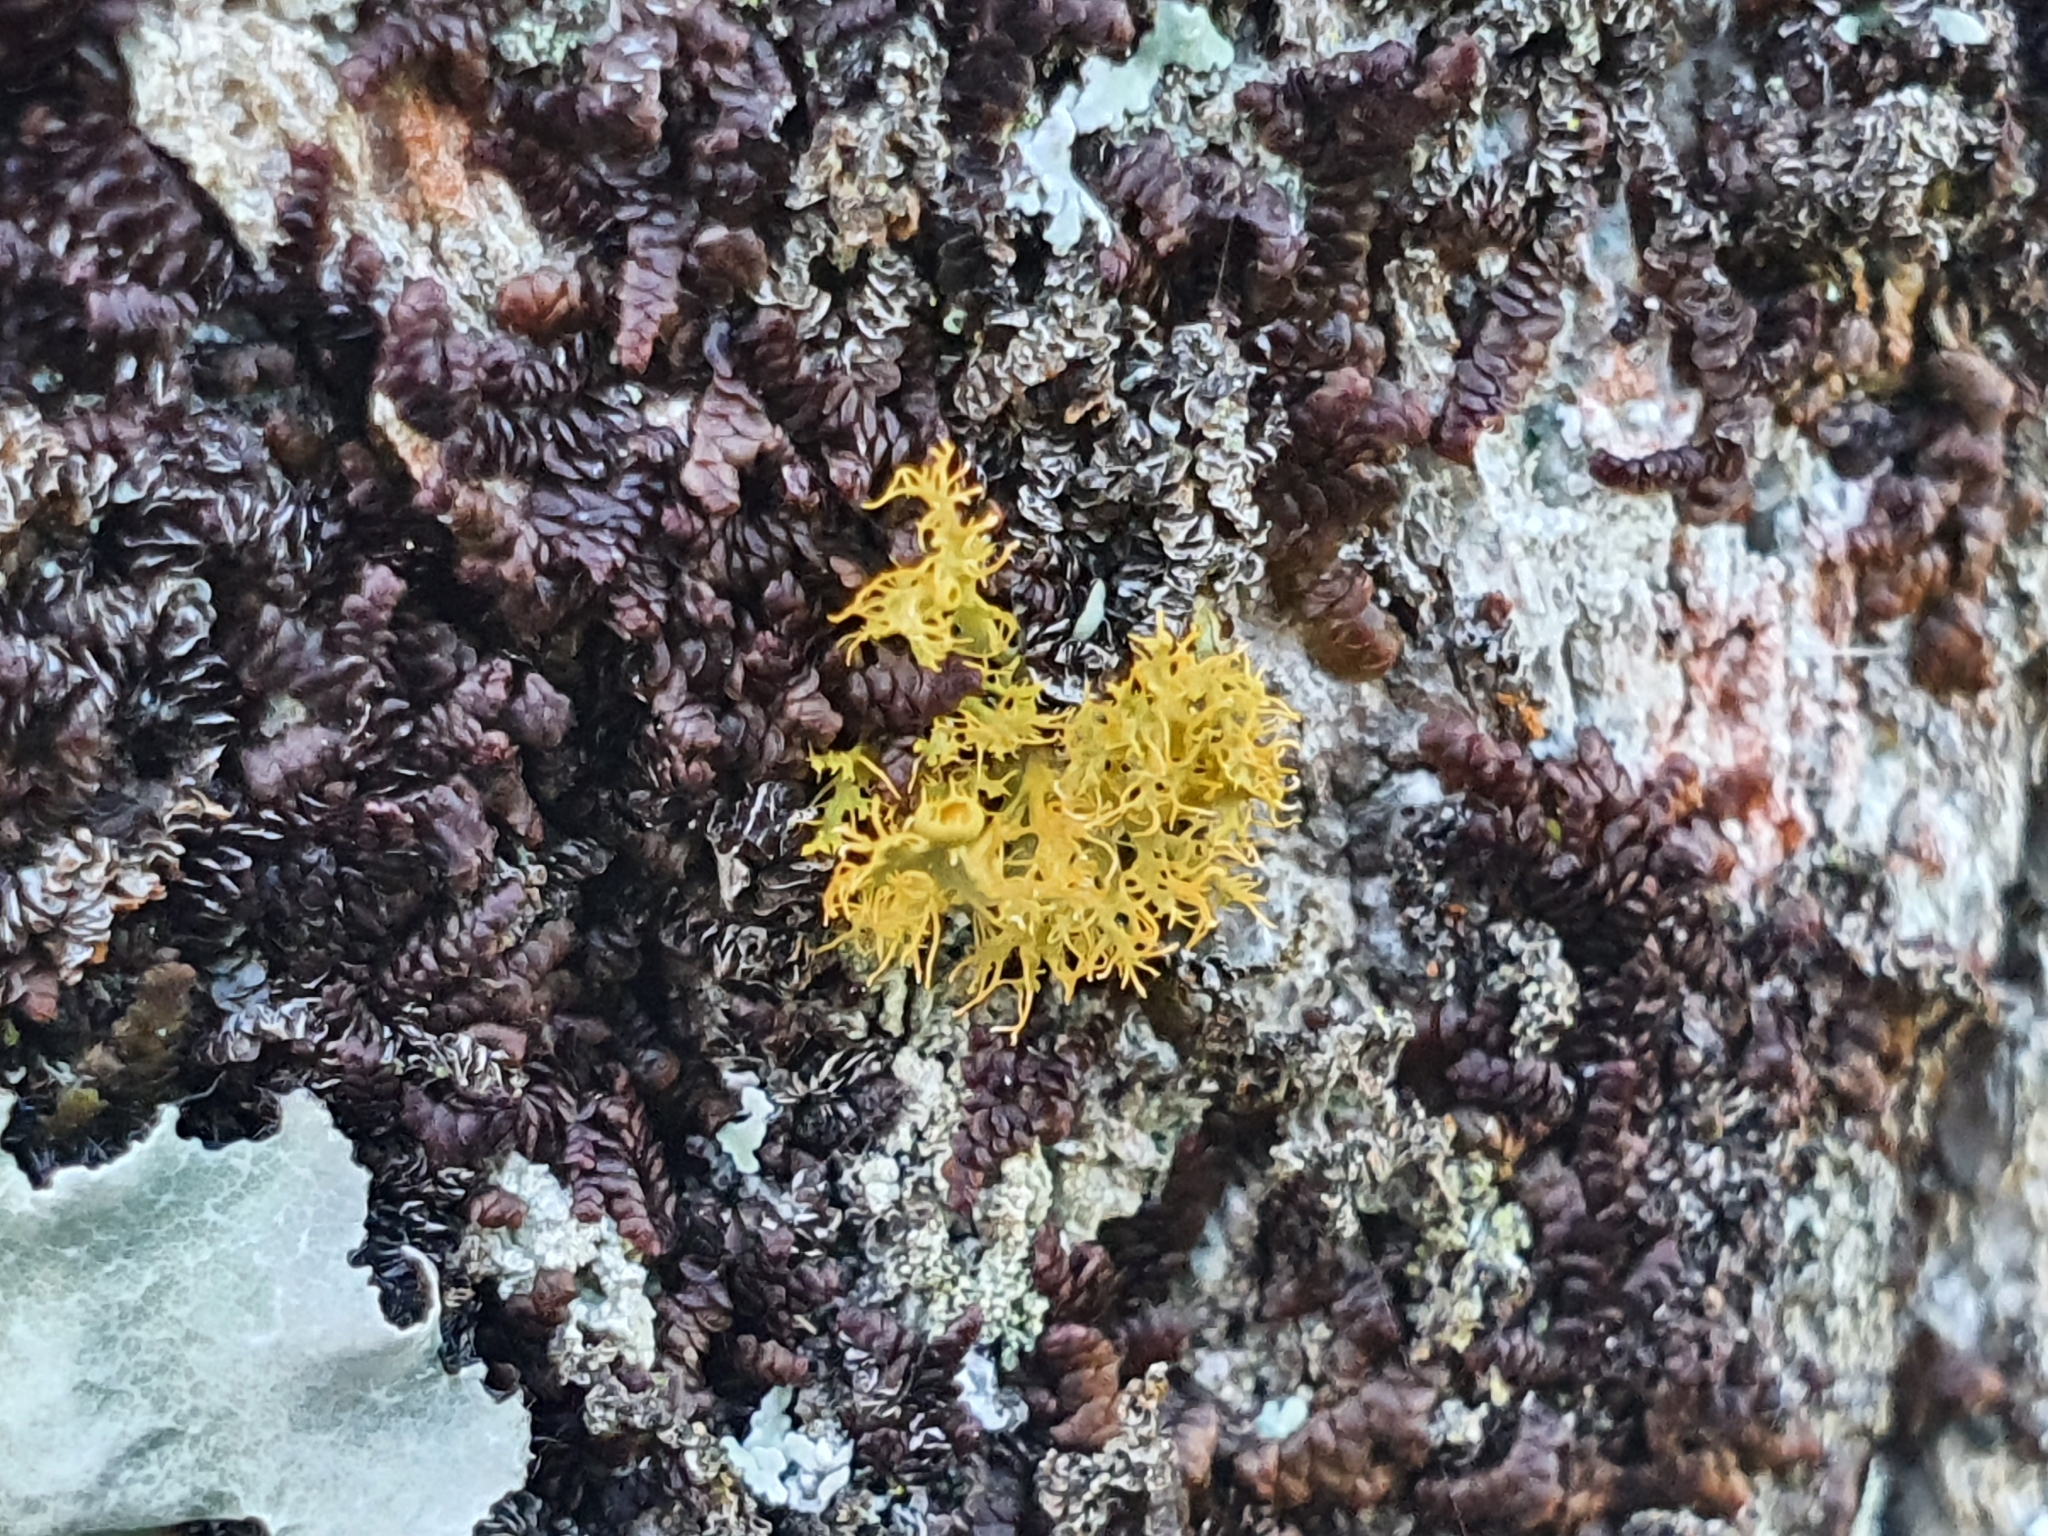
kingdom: Fungi
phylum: Ascomycota
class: Lecanoromycetes
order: Teloschistales
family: Teloschistaceae
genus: Niorma
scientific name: Niorma chrysophthalma
